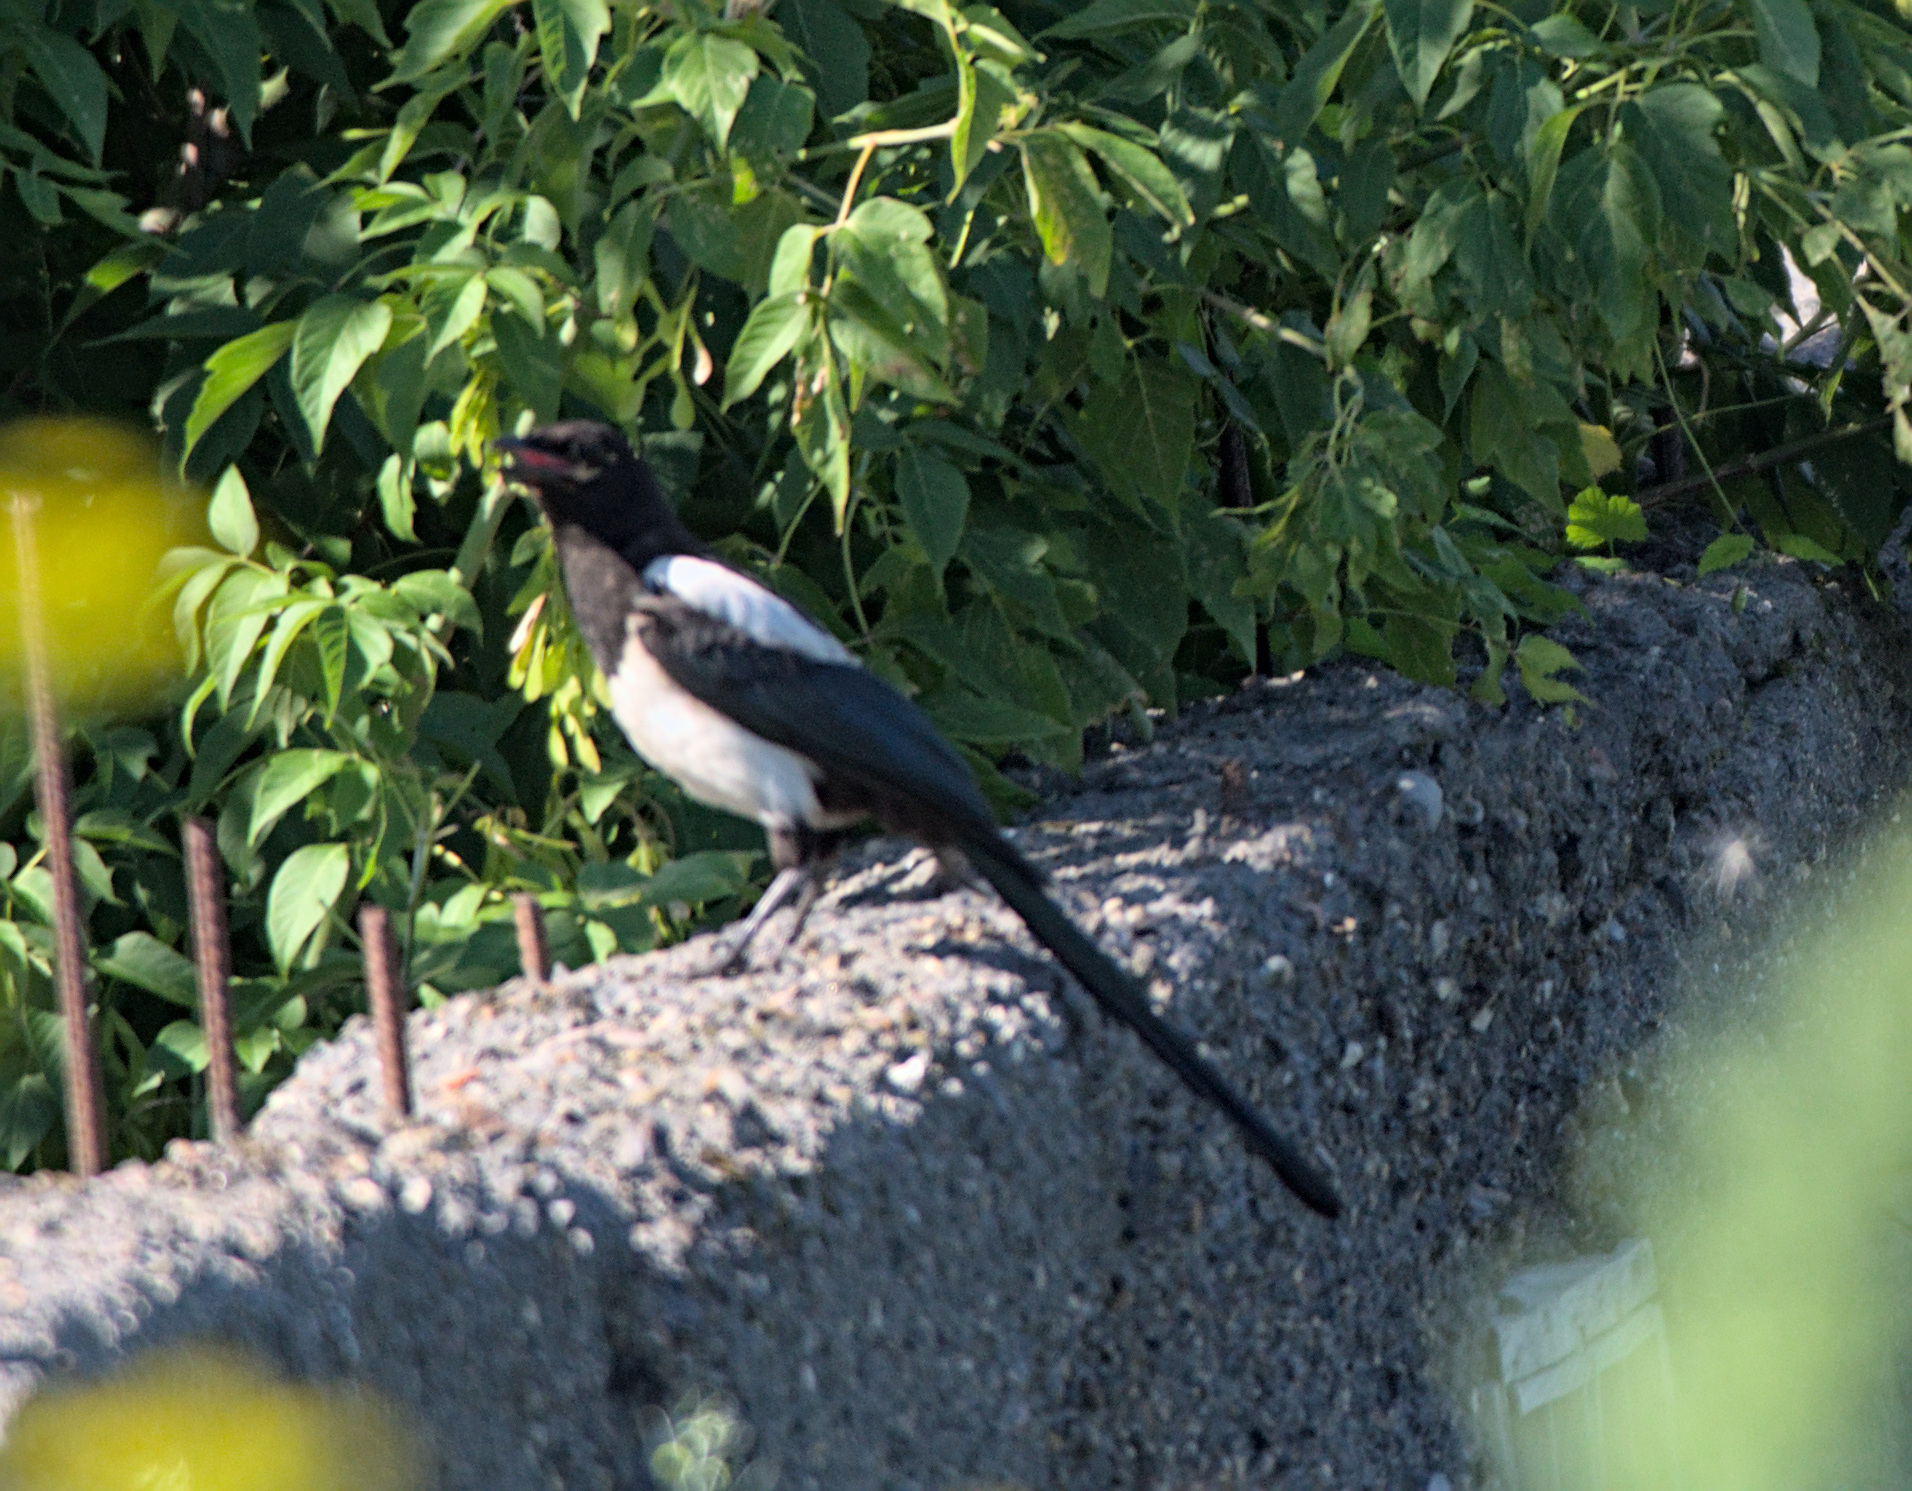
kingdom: Animalia
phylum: Chordata
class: Aves
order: Passeriformes
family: Corvidae
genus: Pica
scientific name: Pica pica
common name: Eurasian magpie
